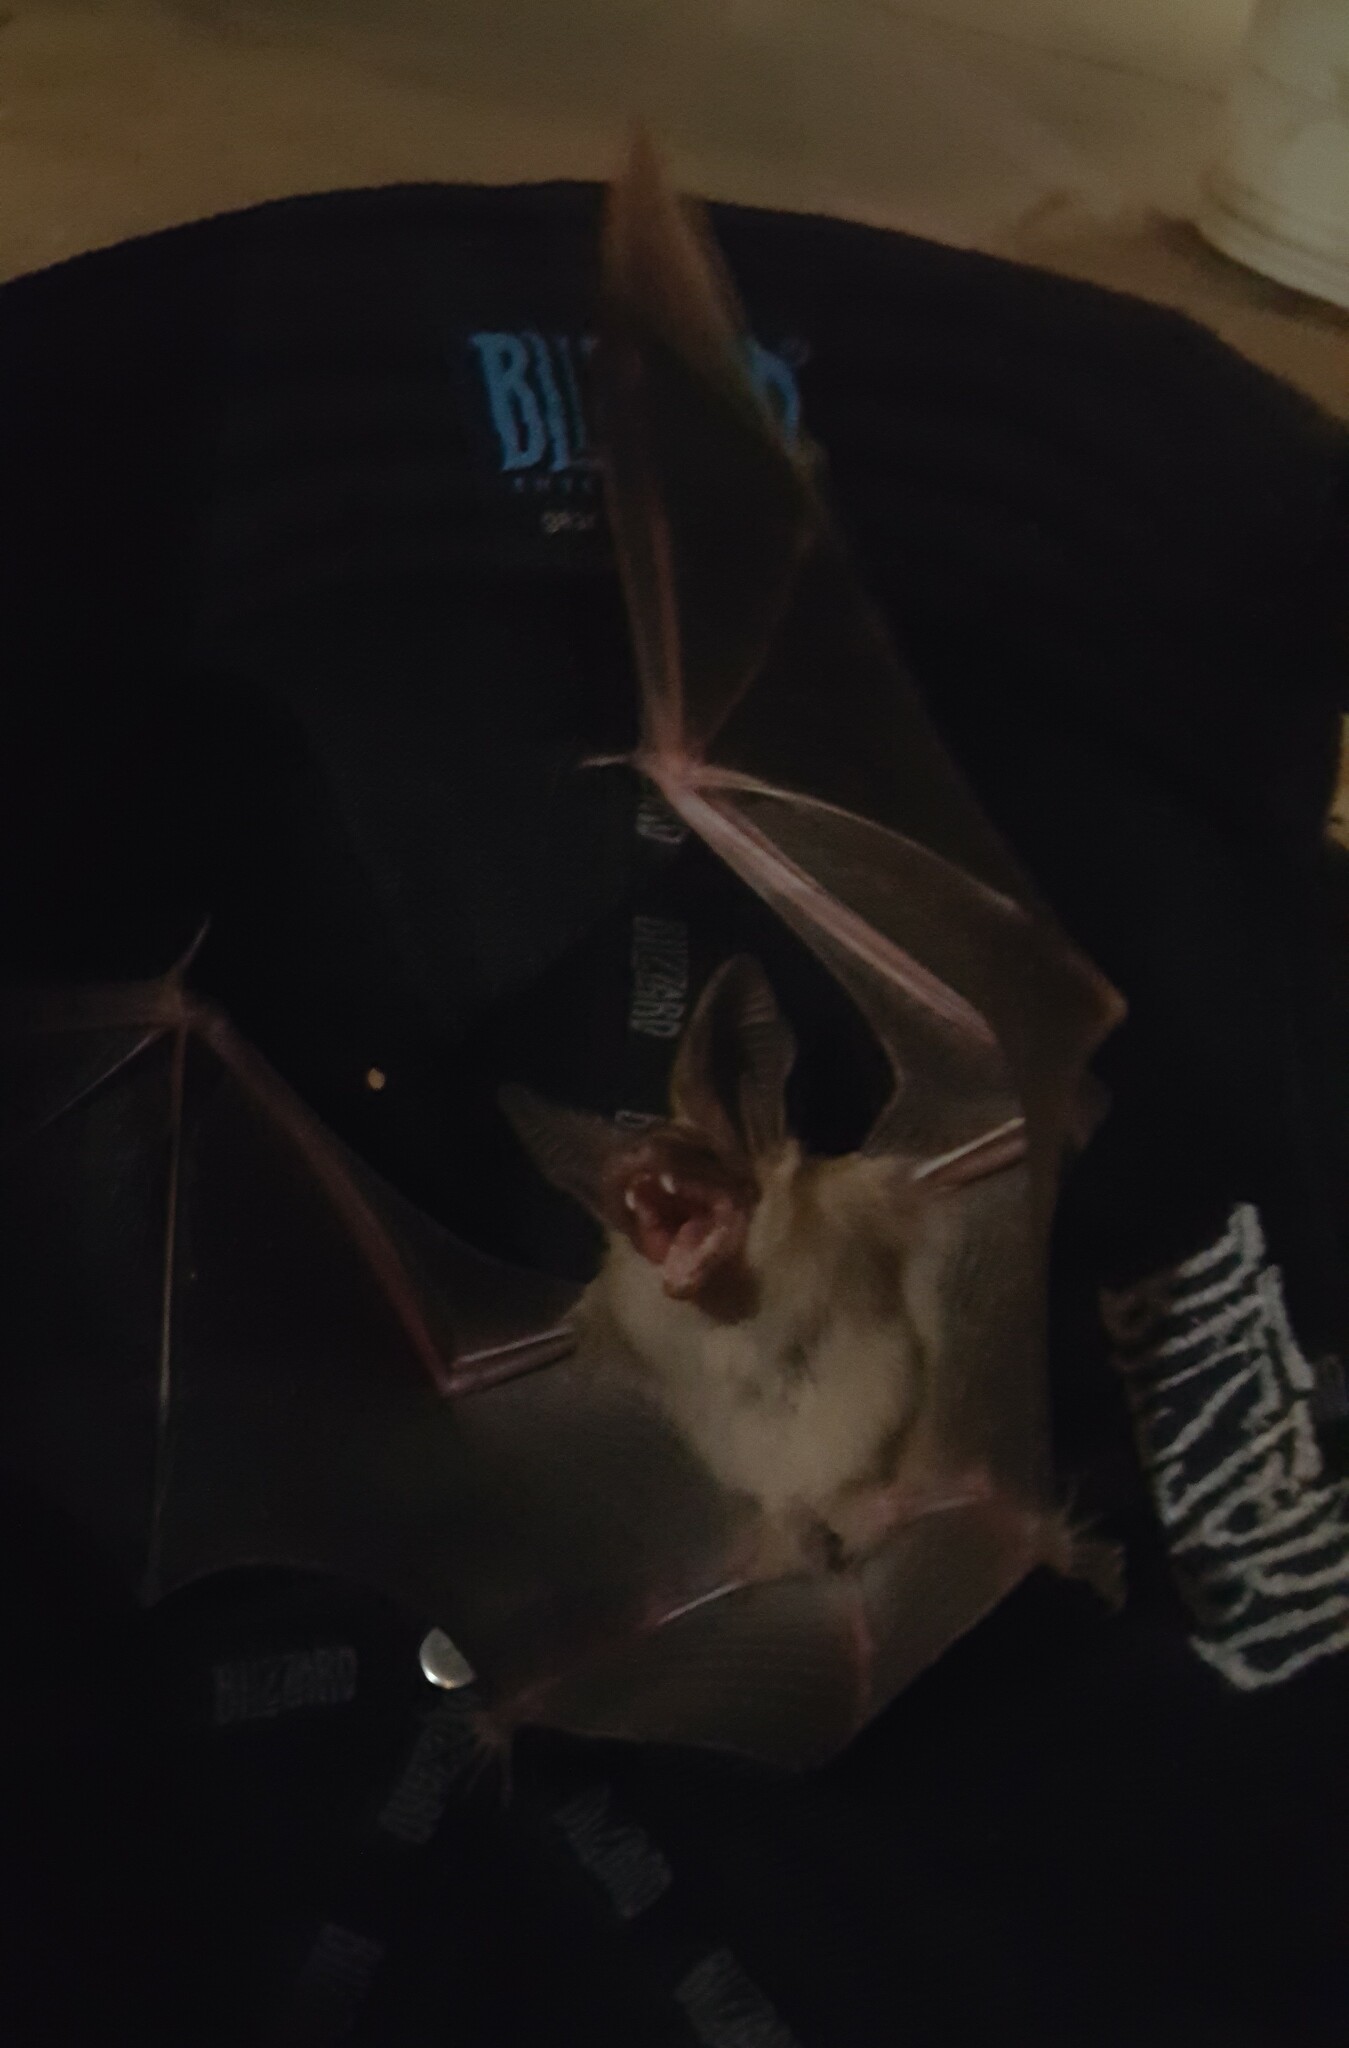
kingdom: Animalia
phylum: Chordata
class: Mammalia
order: Chiroptera
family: Vespertilionidae
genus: Antrozous
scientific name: Antrozous pallidus
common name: Pallid bat
